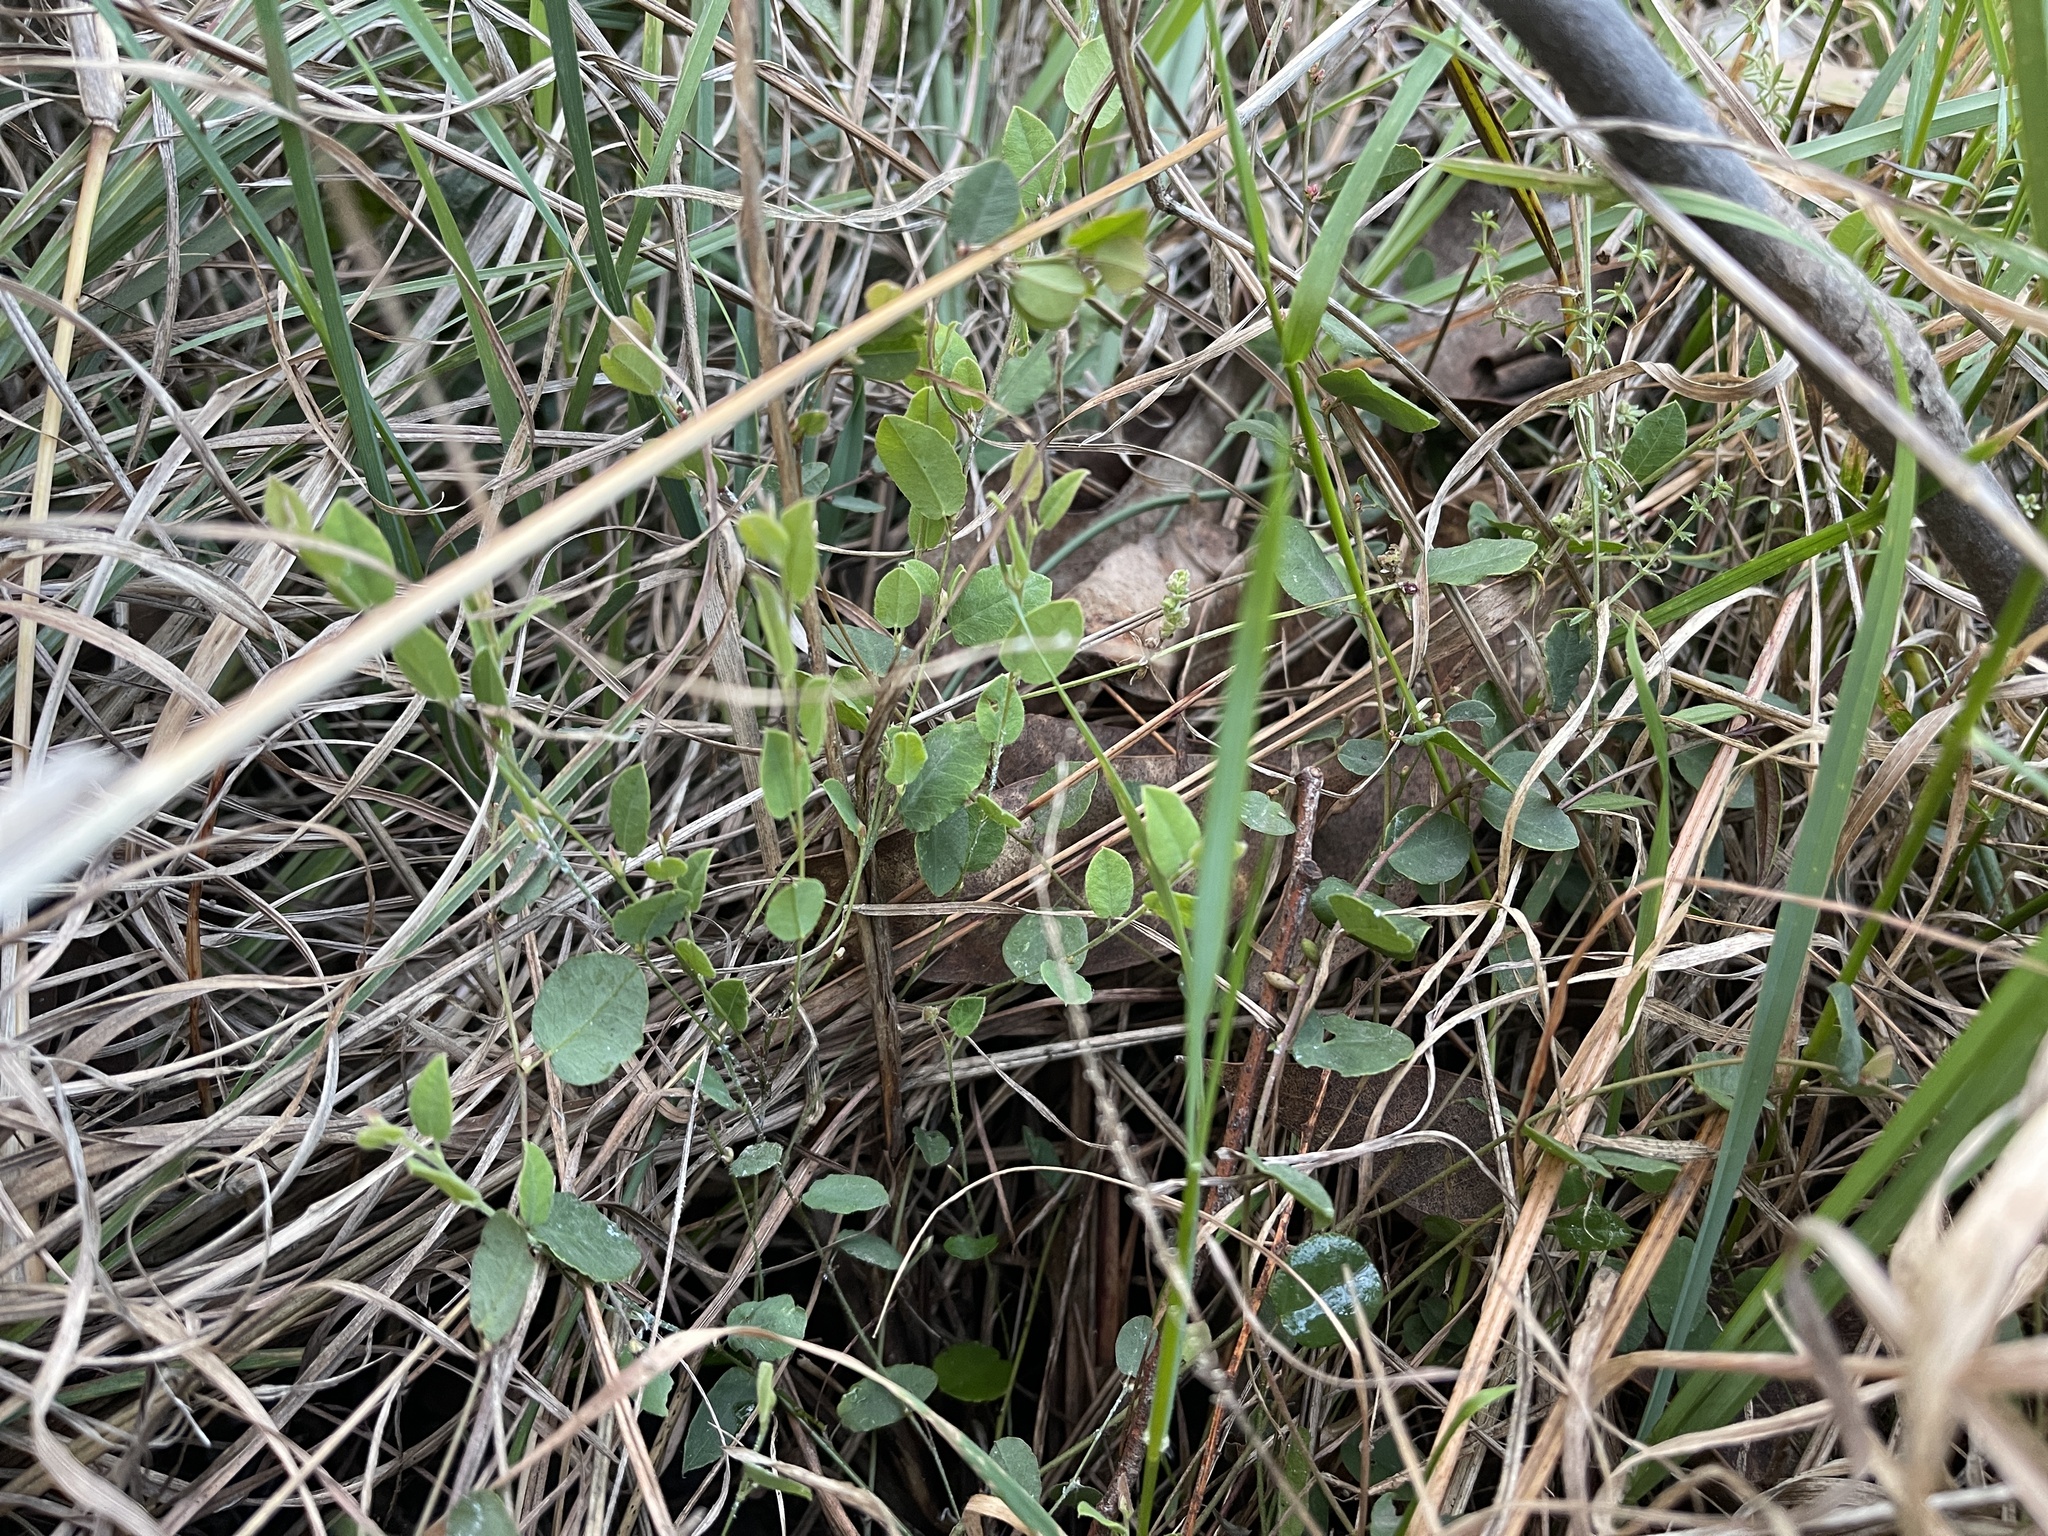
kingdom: Plantae
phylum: Tracheophyta
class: Magnoliopsida
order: Fabales
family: Fabaceae
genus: Bossiaea
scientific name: Bossiaea prostrata
